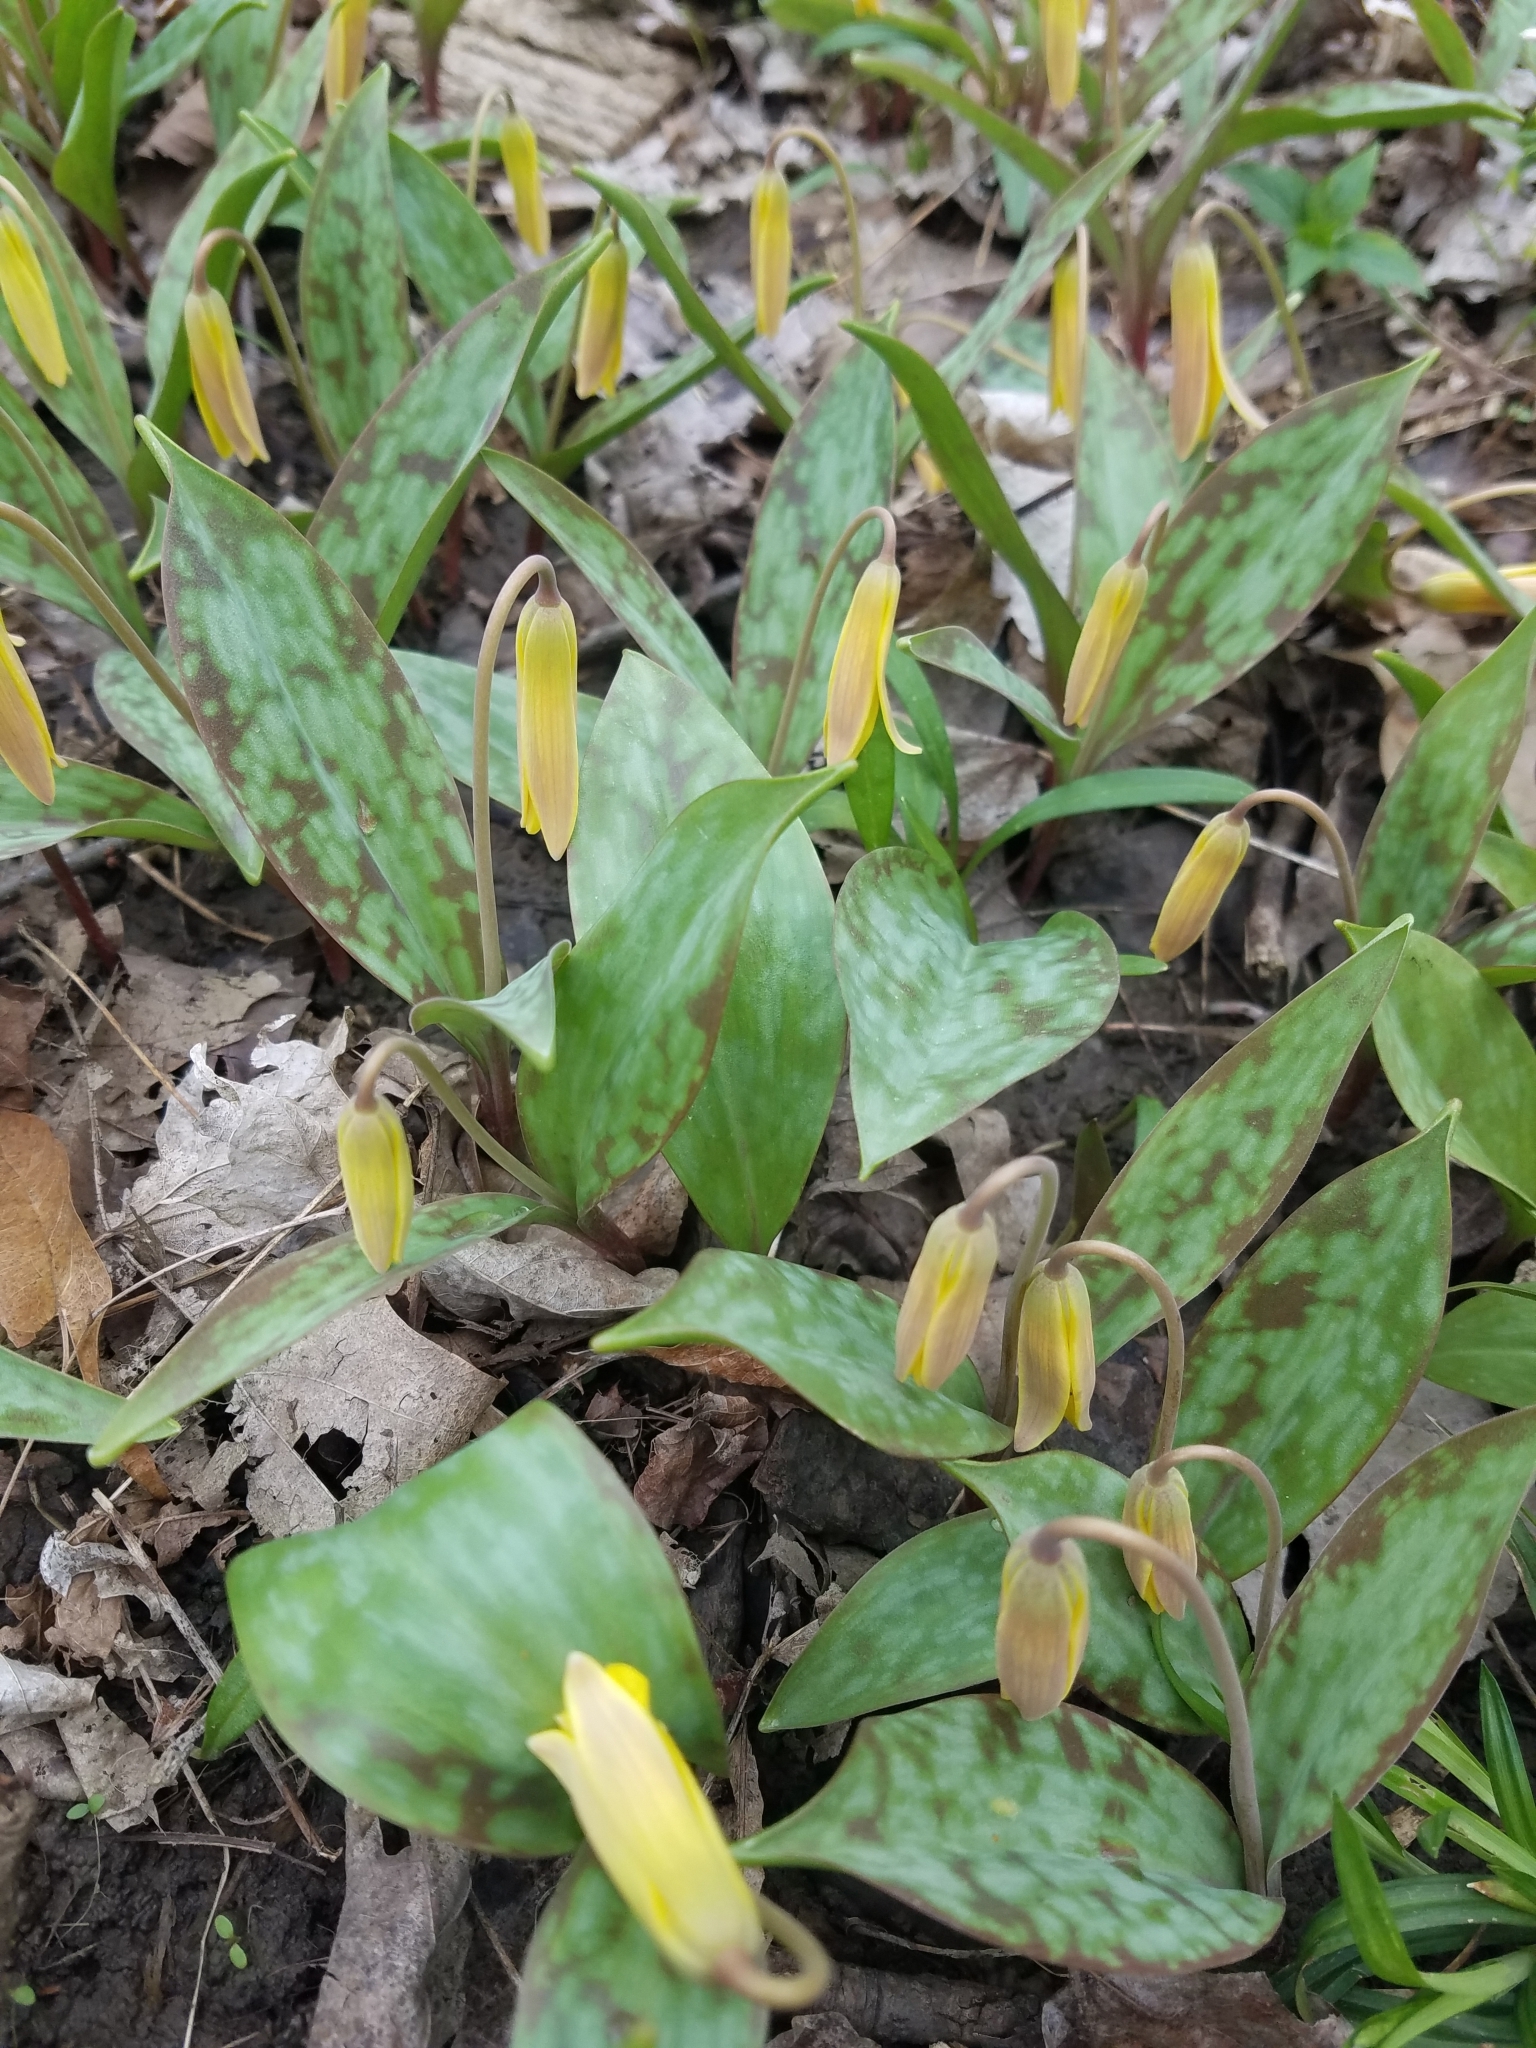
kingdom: Plantae
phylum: Tracheophyta
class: Liliopsida
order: Liliales
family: Liliaceae
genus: Erythronium
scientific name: Erythronium americanum
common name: Yellow adder's-tongue
